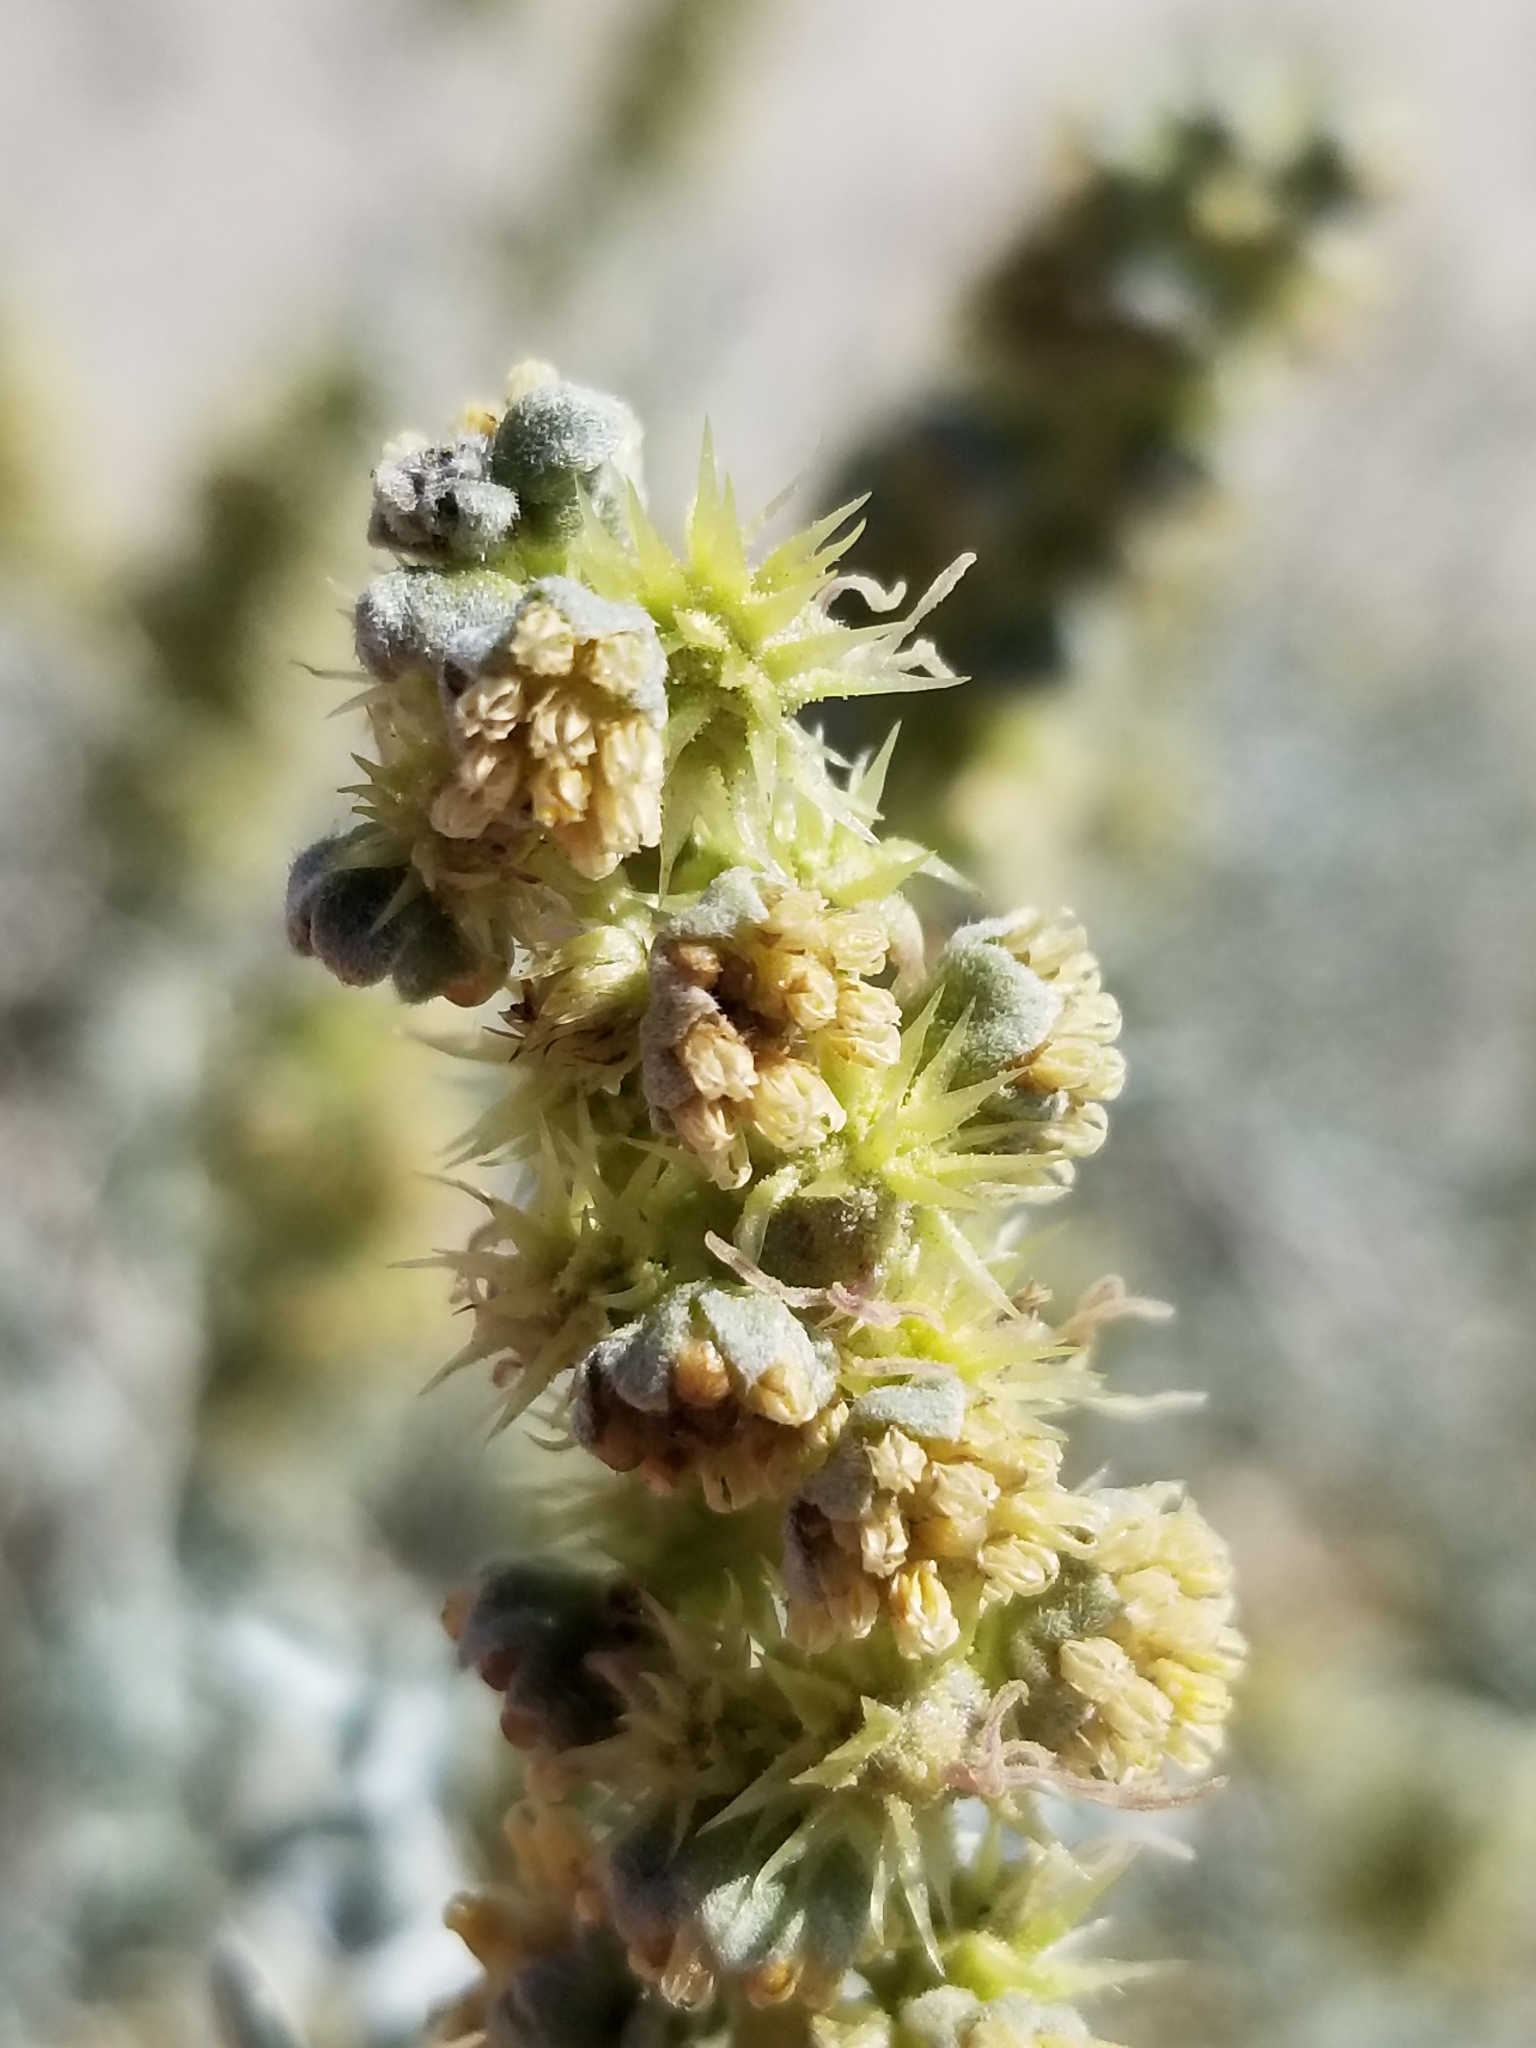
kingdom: Plantae
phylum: Tracheophyta
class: Magnoliopsida
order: Asterales
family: Asteraceae
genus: Ambrosia
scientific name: Ambrosia dumosa
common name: Bur-sage
